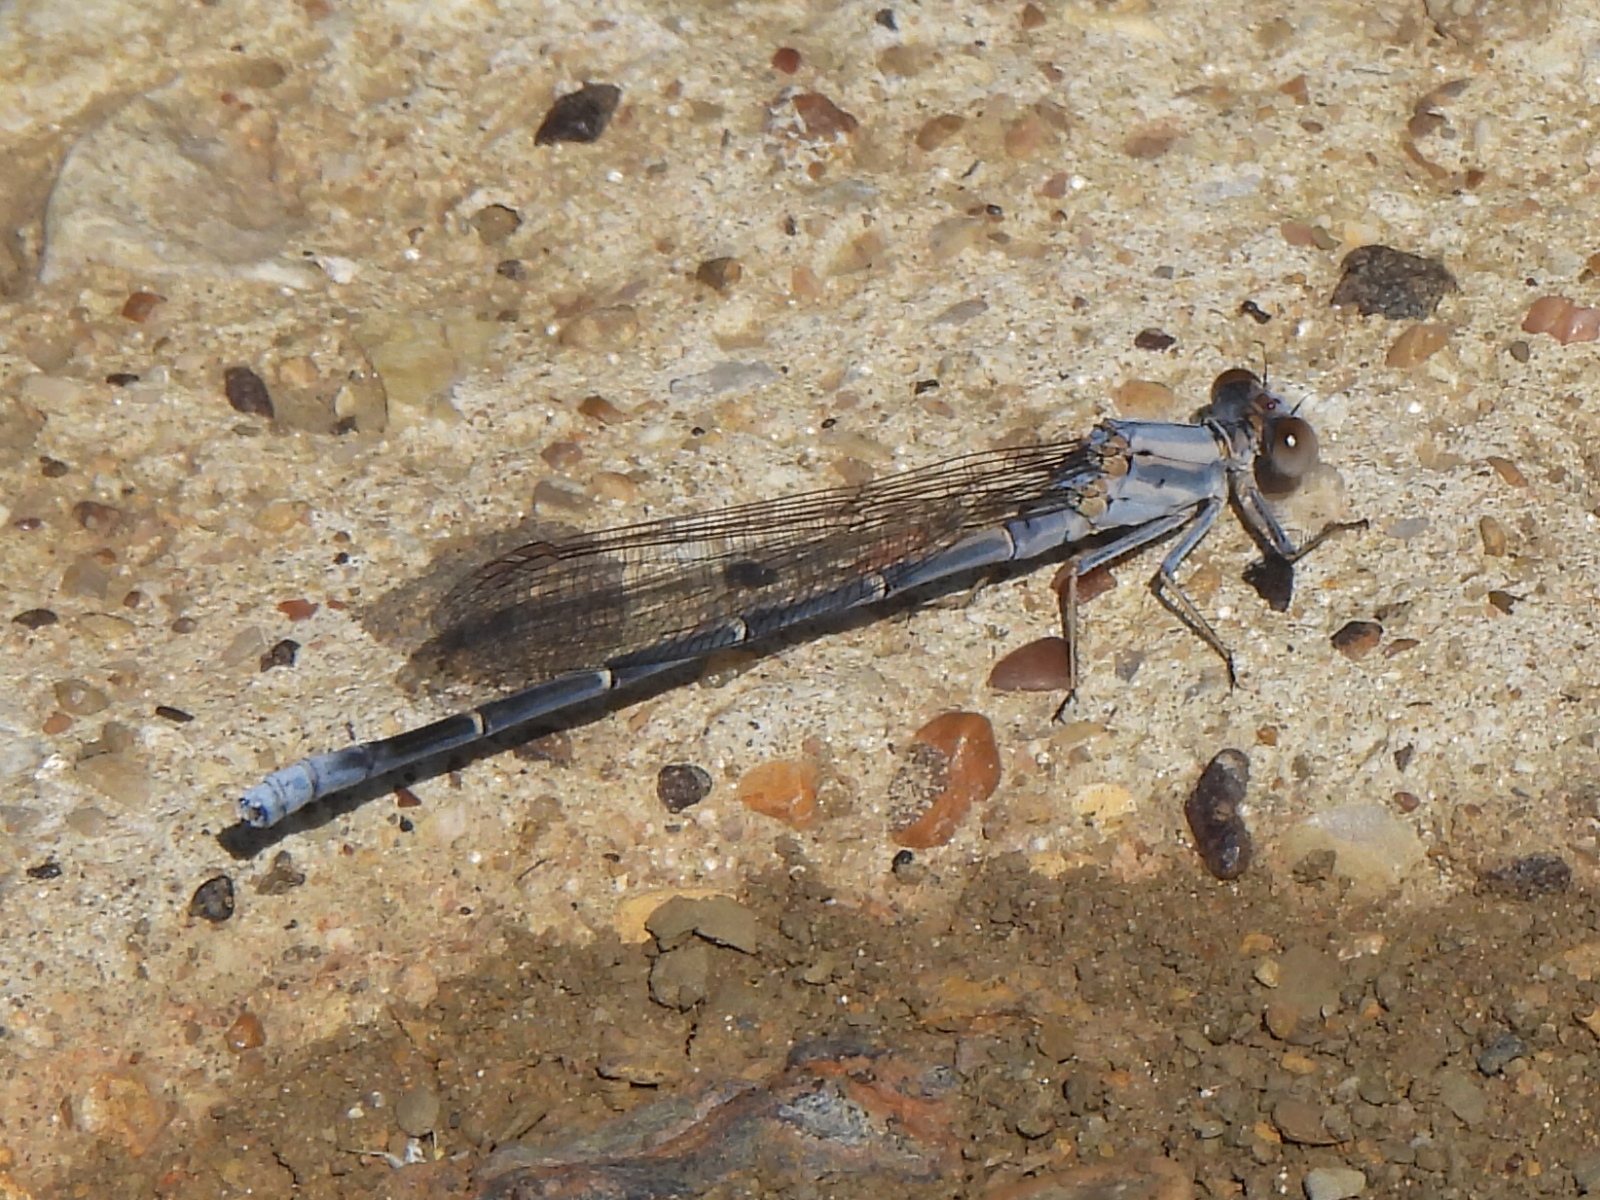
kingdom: Animalia
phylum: Arthropoda
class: Insecta
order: Odonata
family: Coenagrionidae
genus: Argia
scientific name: Argia moesta
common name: Powdered dancer
